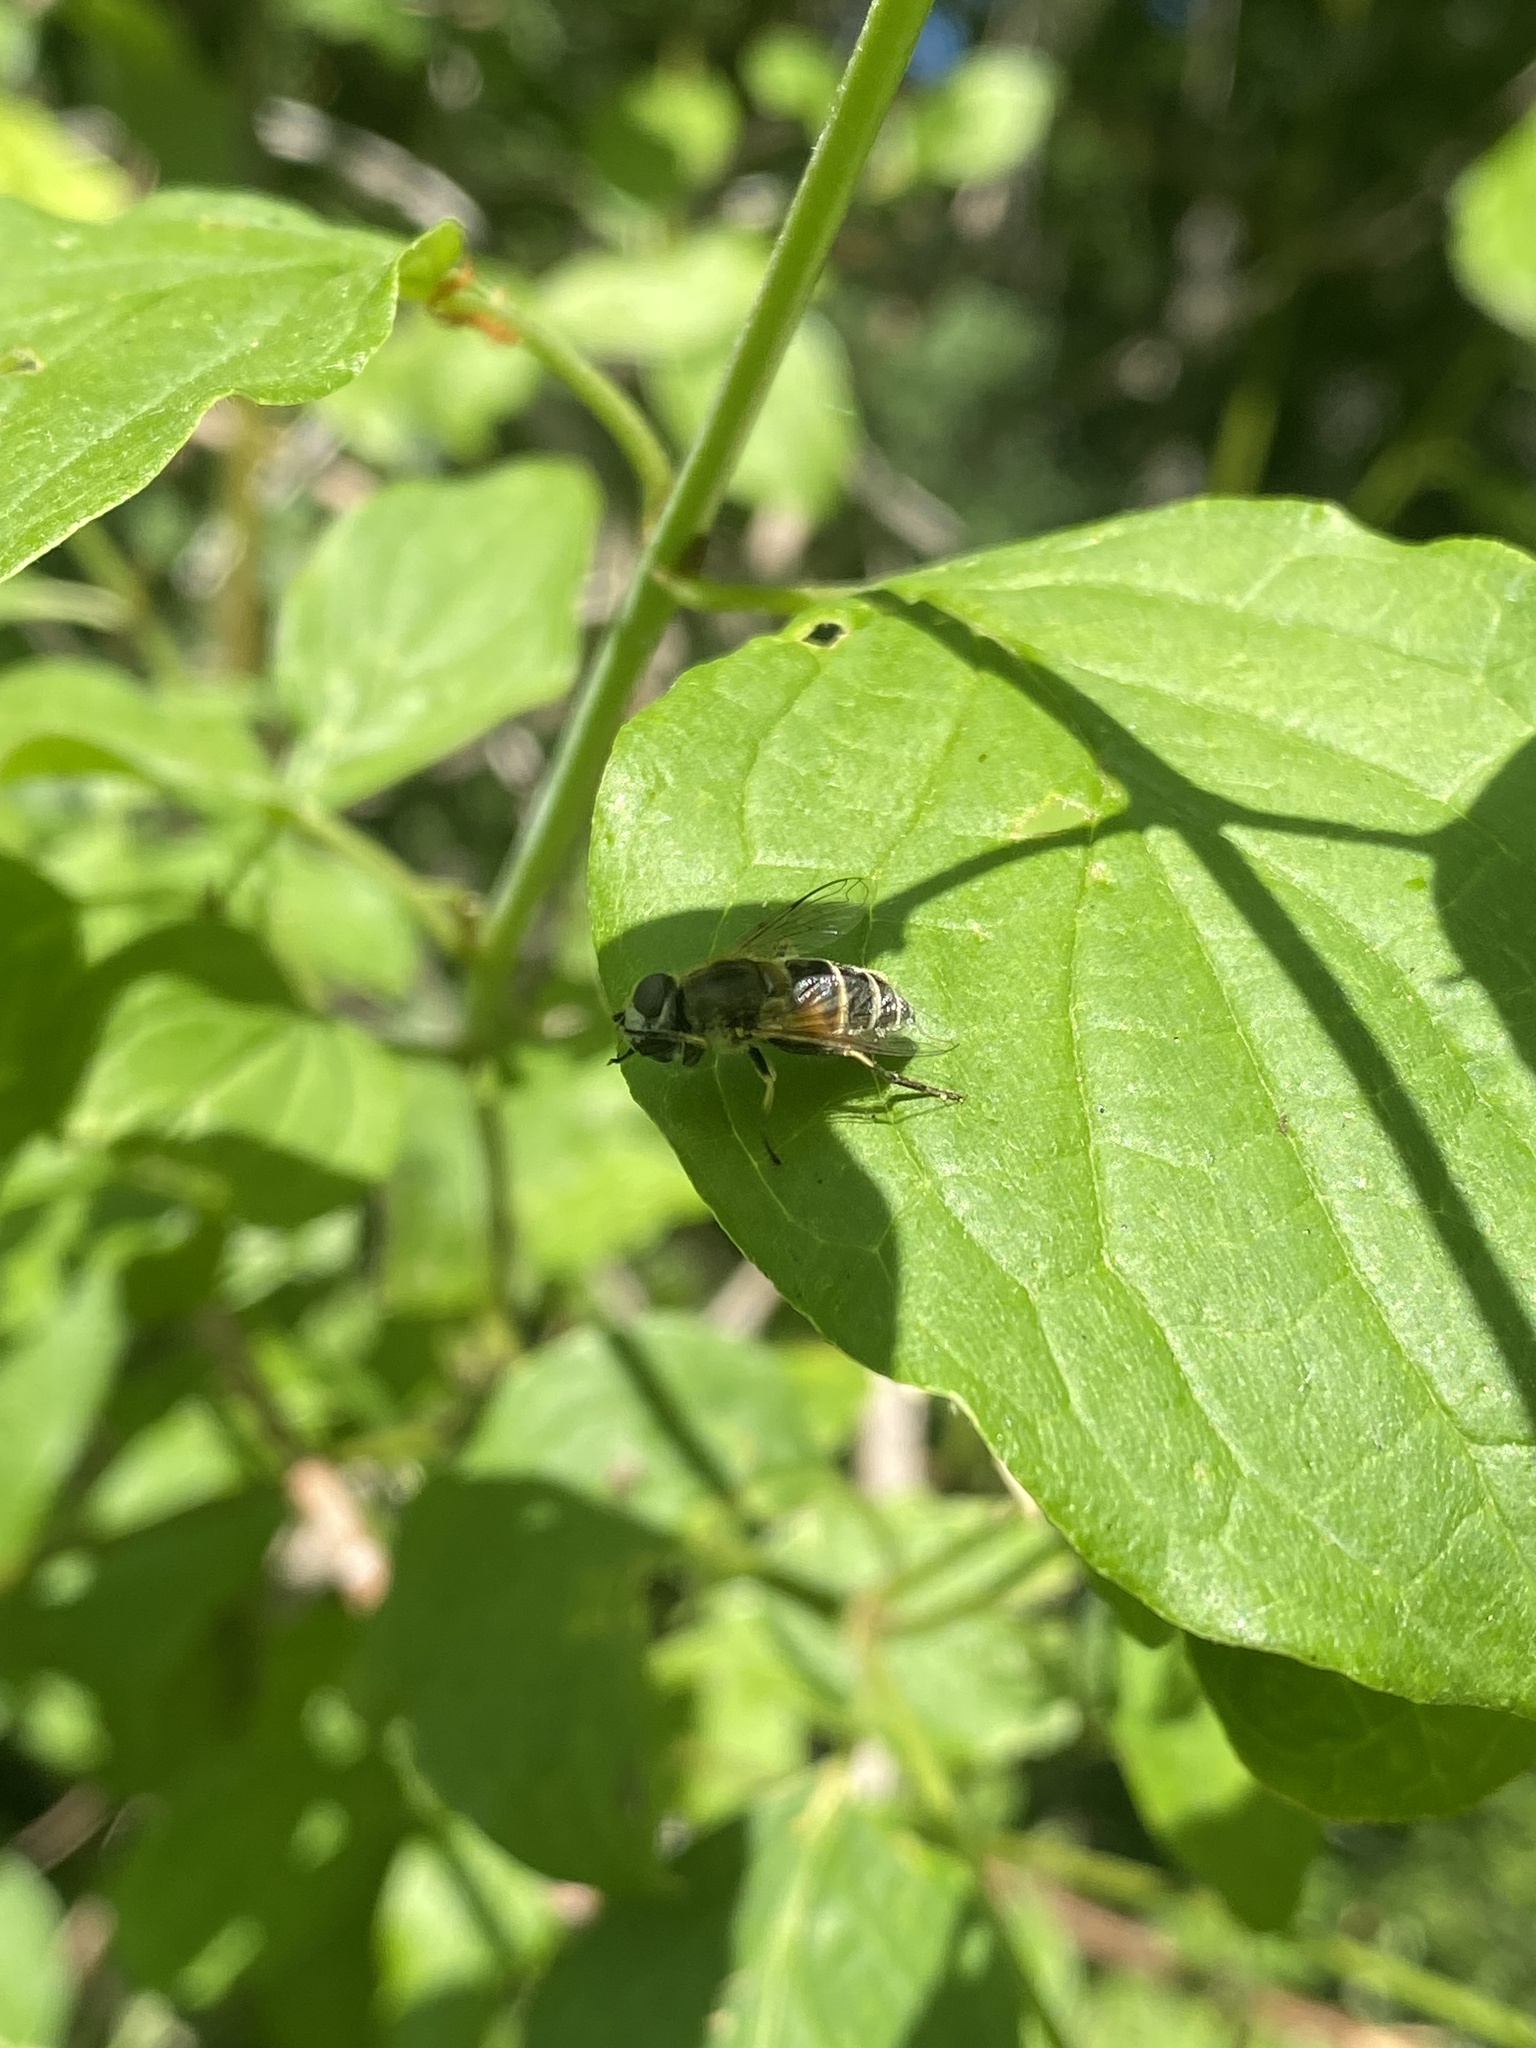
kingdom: Animalia
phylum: Arthropoda
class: Insecta
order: Diptera
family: Syrphidae
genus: Eristalis
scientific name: Eristalis arbustorum
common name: Hover fly
